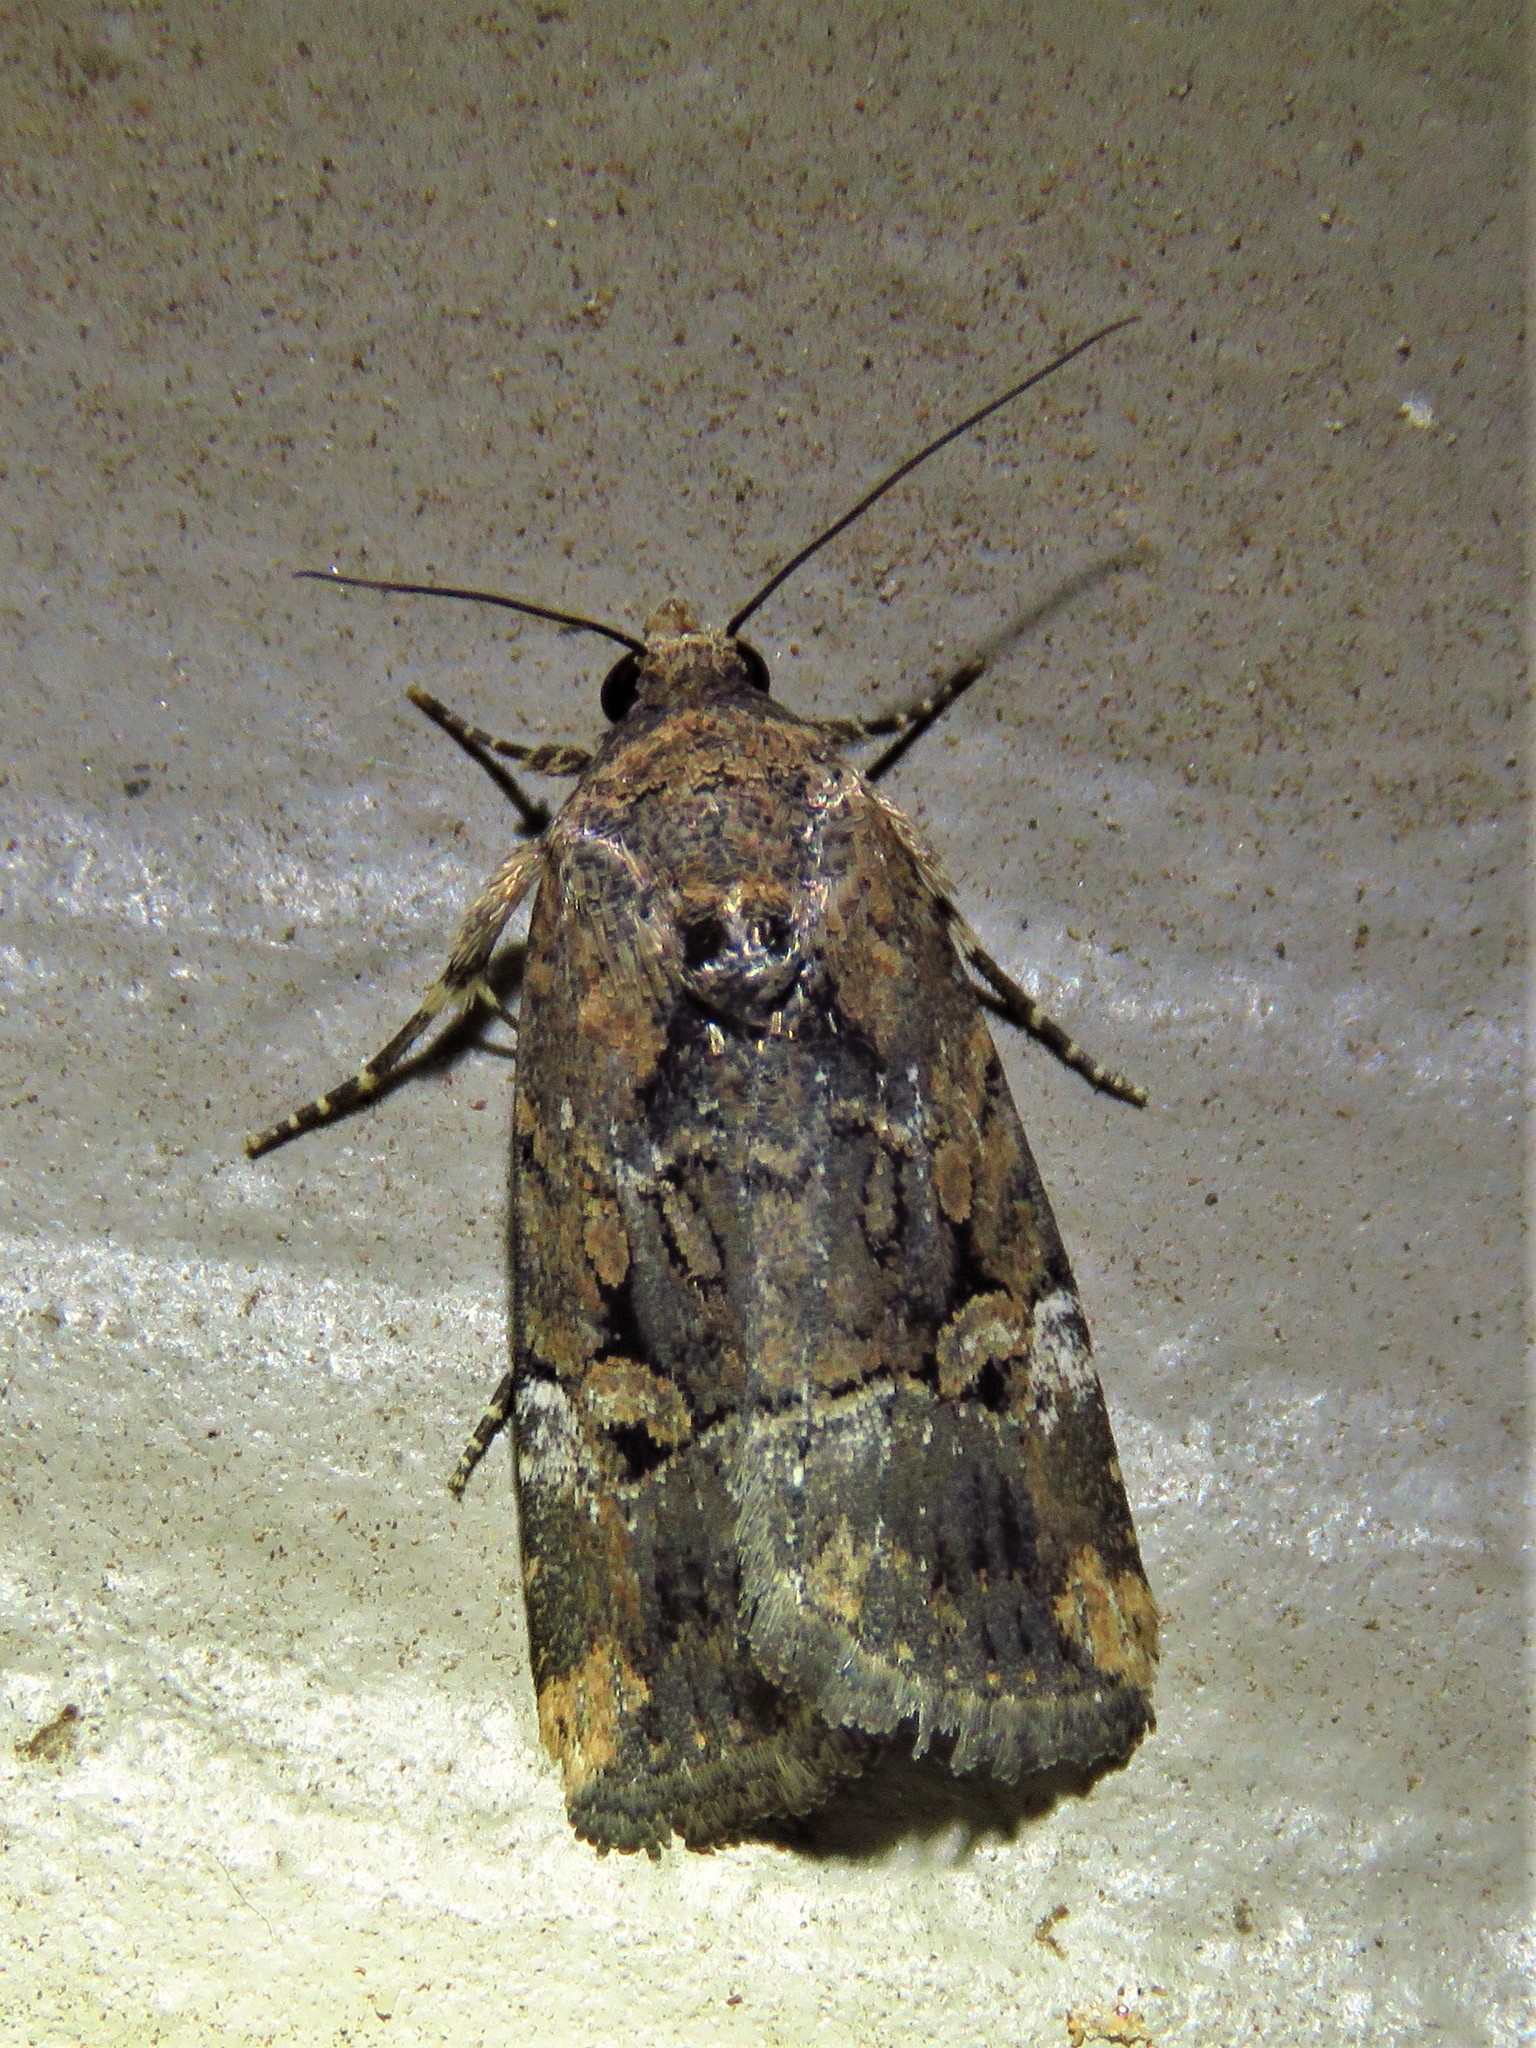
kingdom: Animalia
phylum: Arthropoda
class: Insecta
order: Lepidoptera
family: Noctuidae
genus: Elaphria
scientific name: Elaphria chalcedonia
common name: Chalcedony midget
